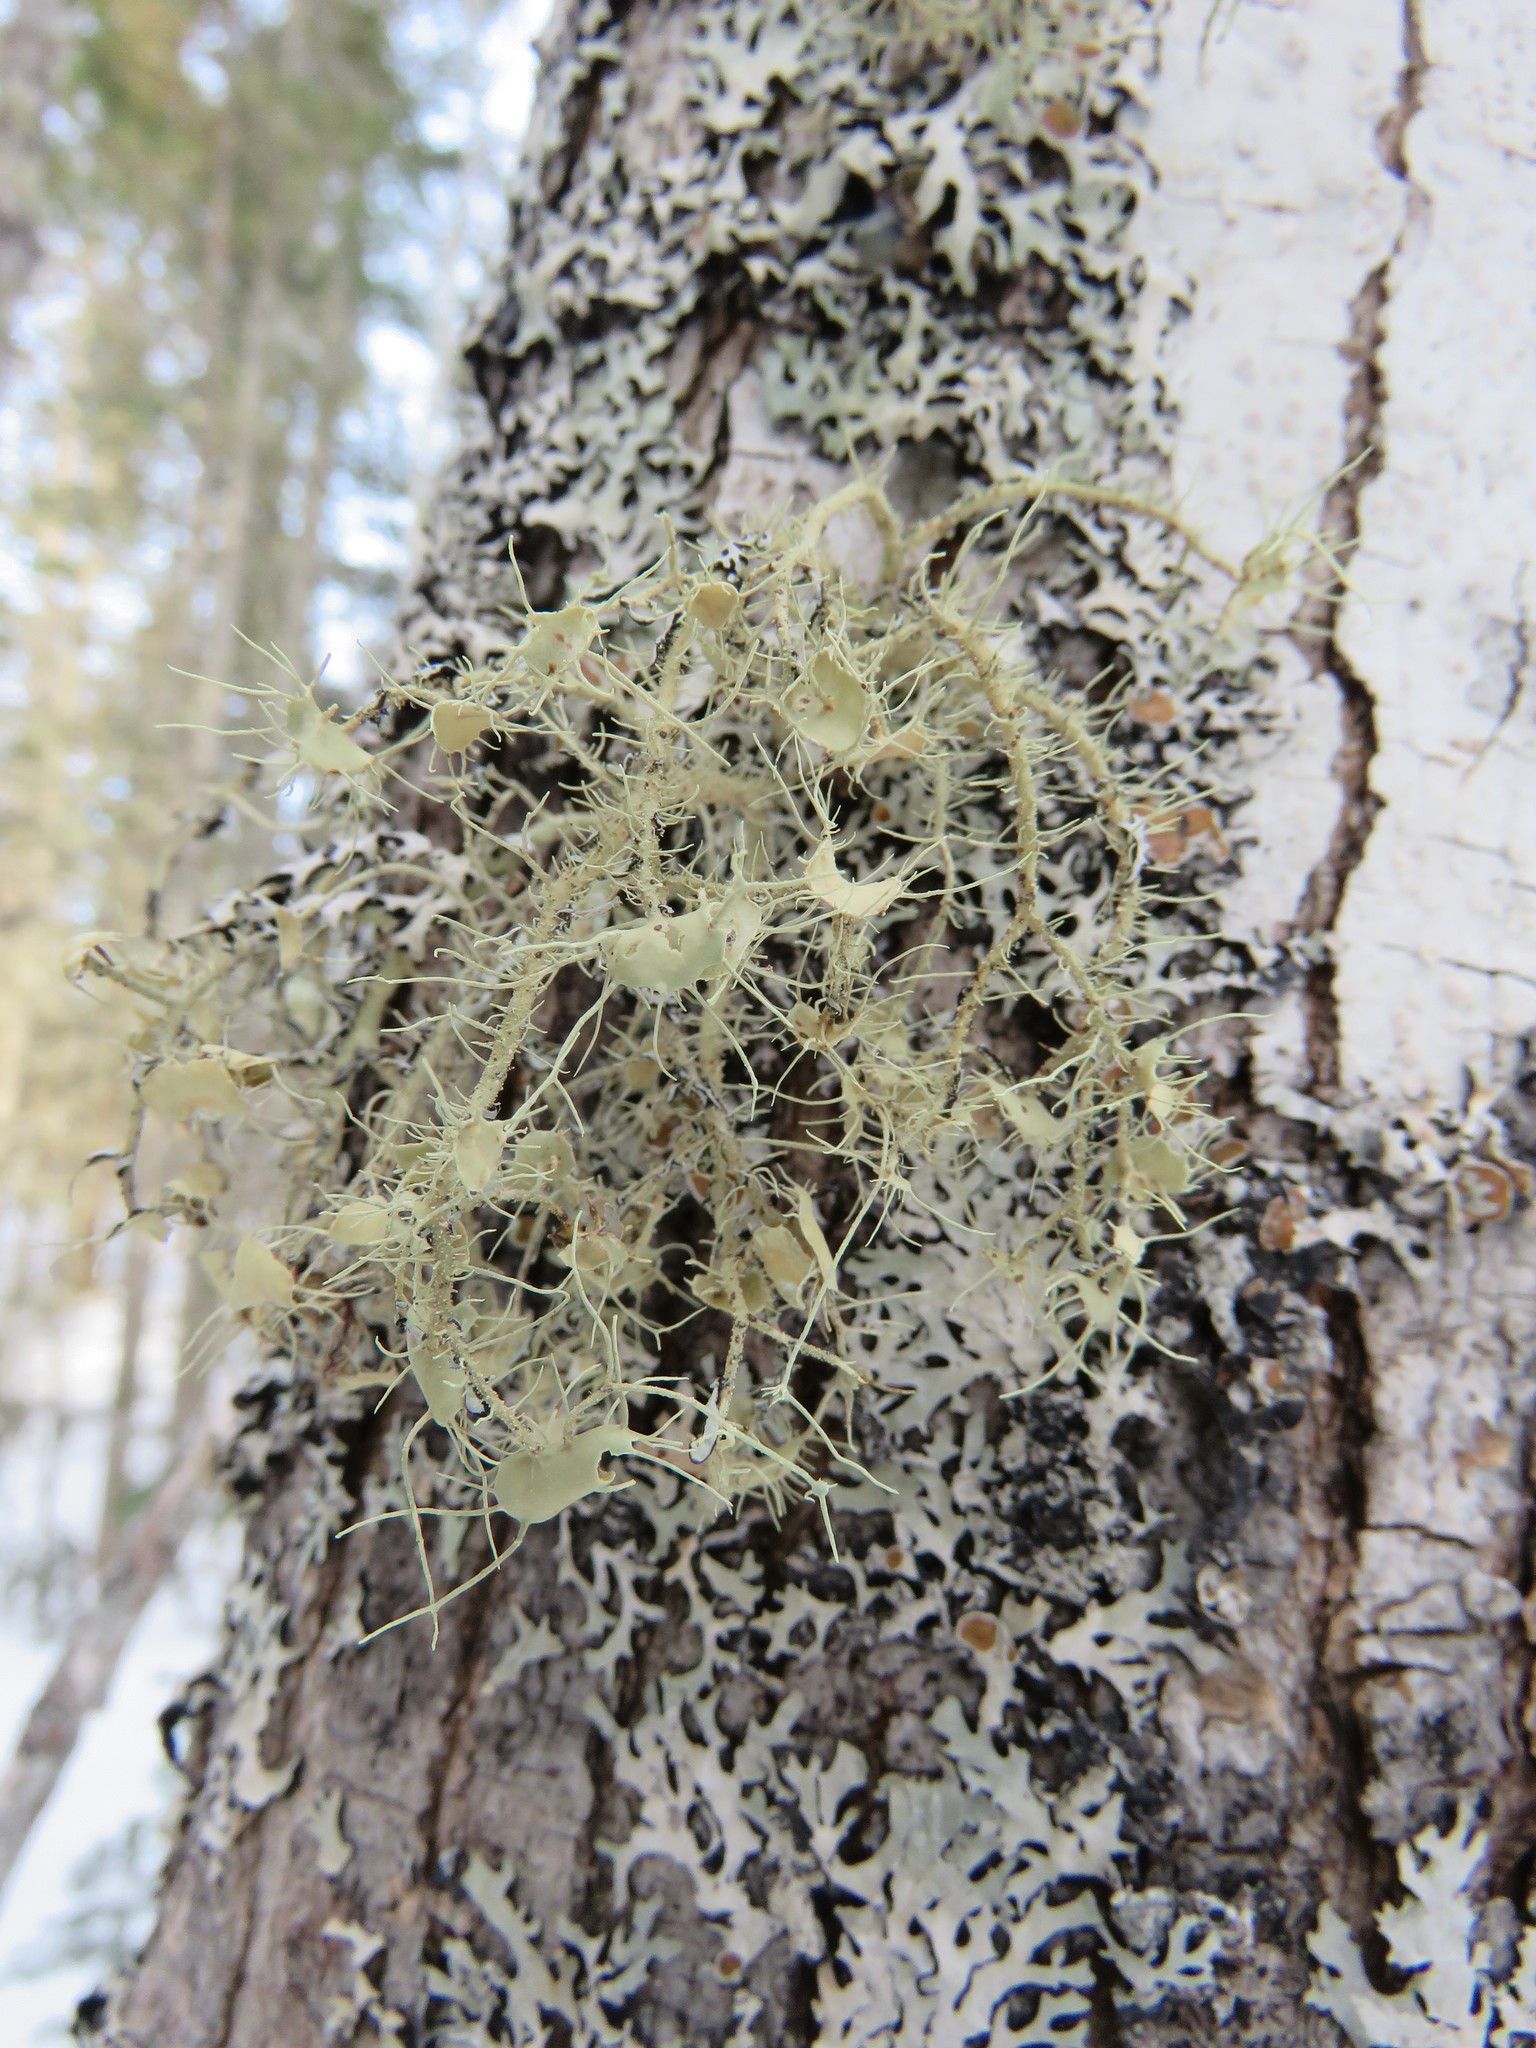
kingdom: Fungi
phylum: Ascomycota
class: Lecanoromycetes
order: Lecanorales
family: Parmeliaceae
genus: Usnea
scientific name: Usnea strigosa
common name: Bushy beard lichen
